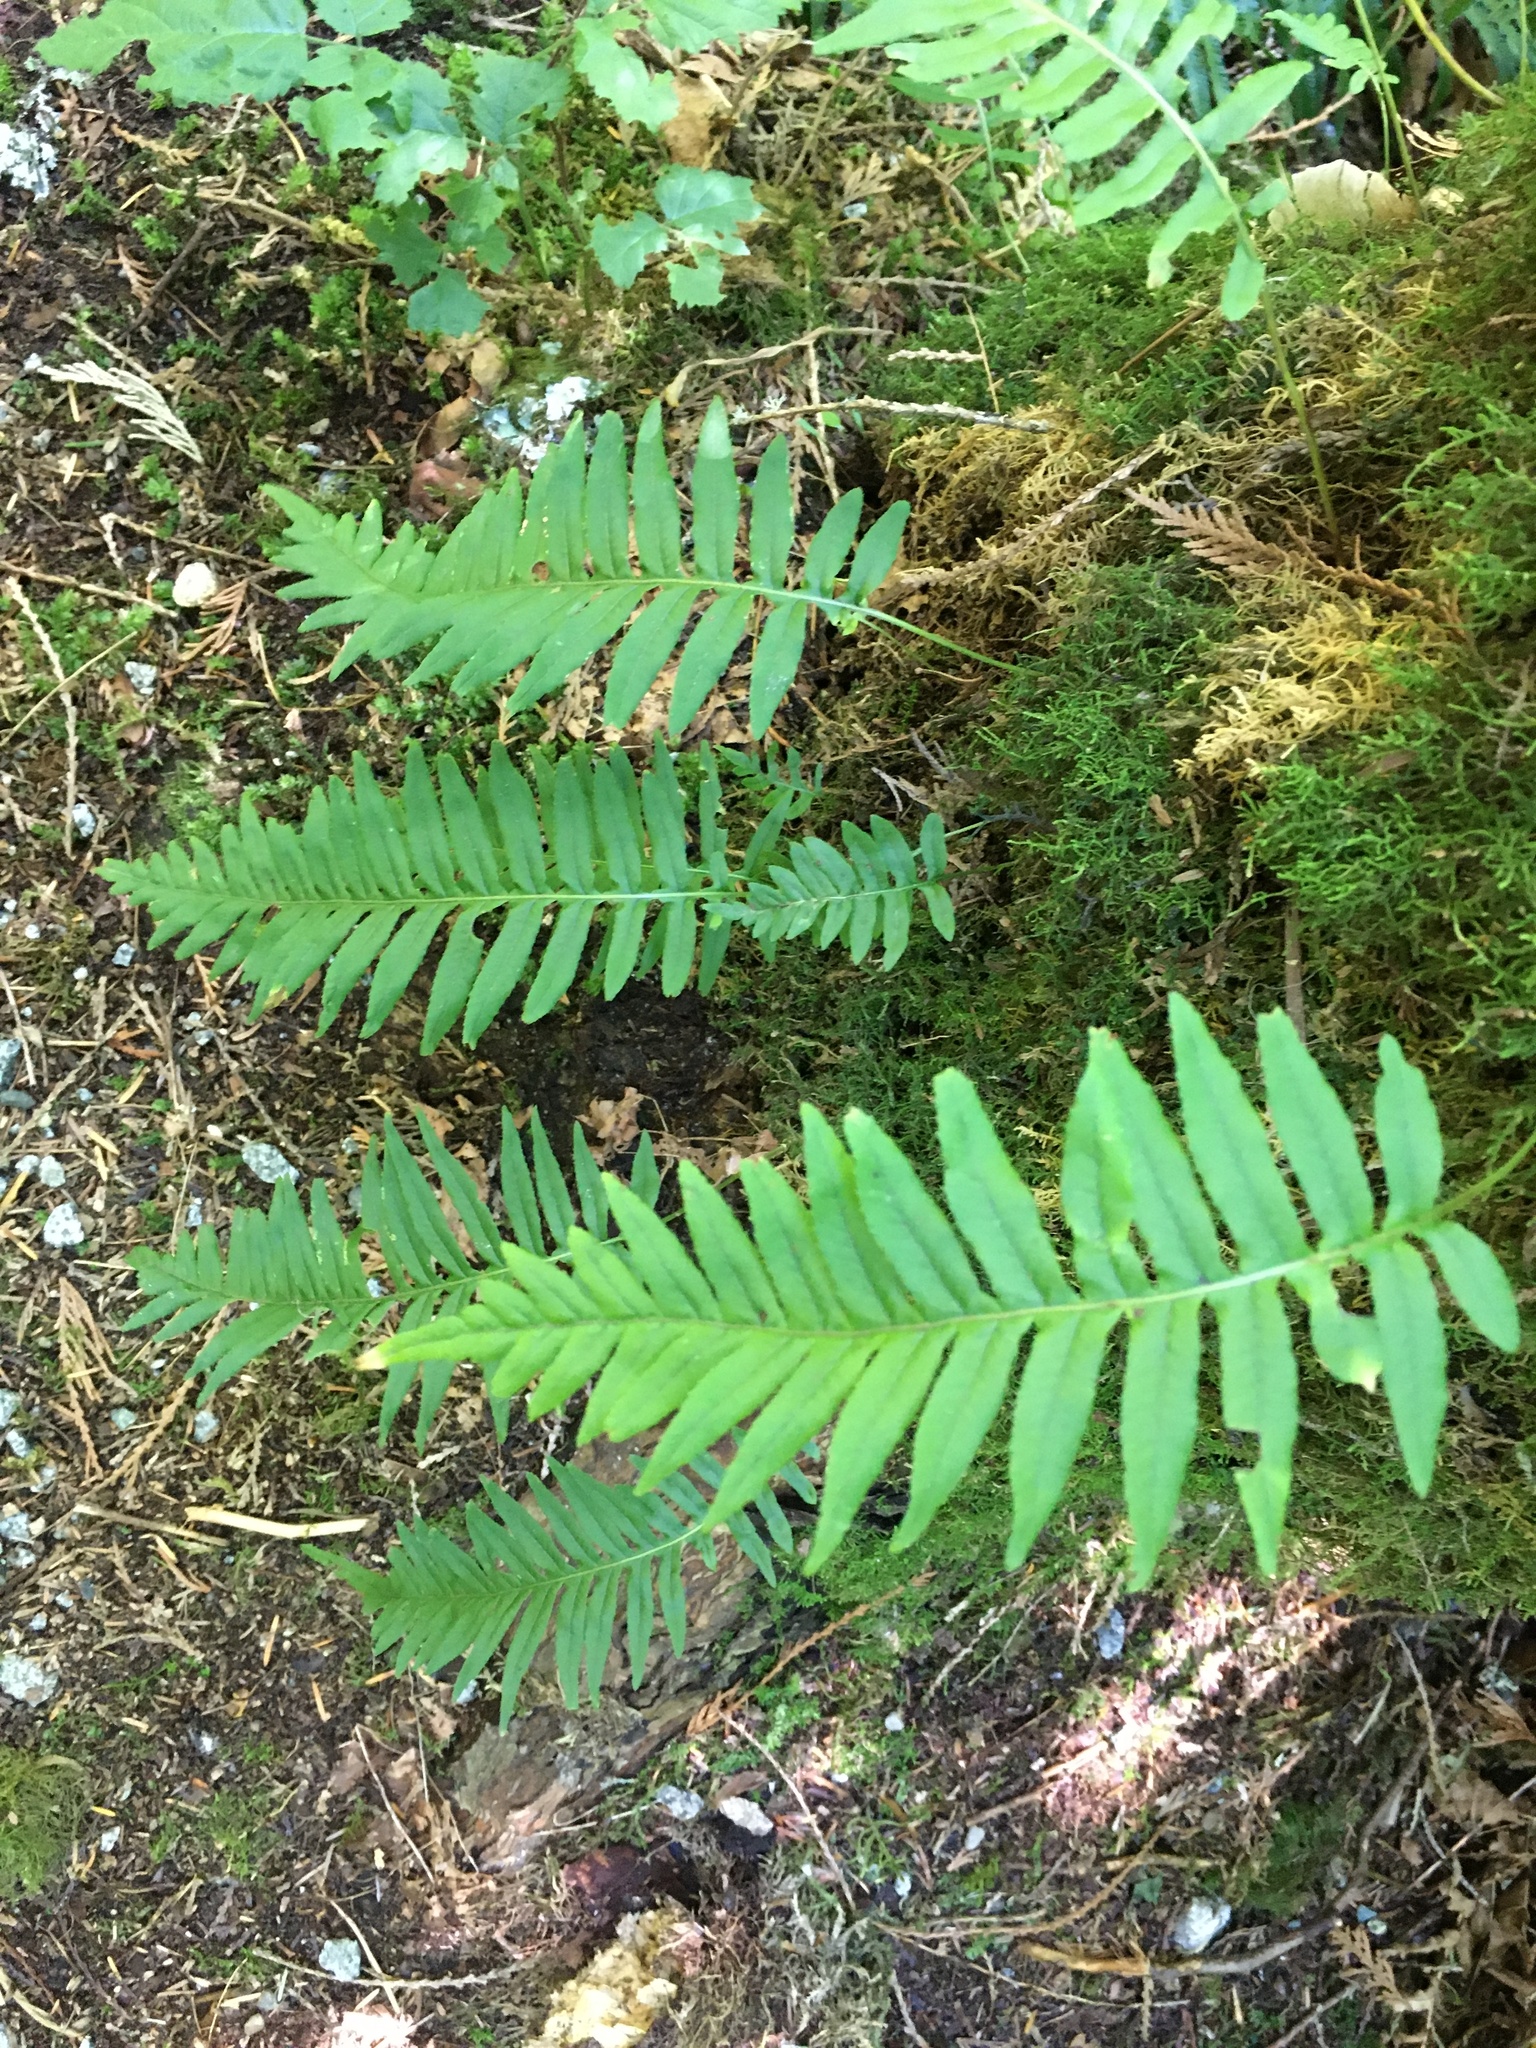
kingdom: Plantae
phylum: Tracheophyta
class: Polypodiopsida
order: Polypodiales
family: Polypodiaceae
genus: Polypodium
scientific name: Polypodium glycyrrhiza
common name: Licorice fern
